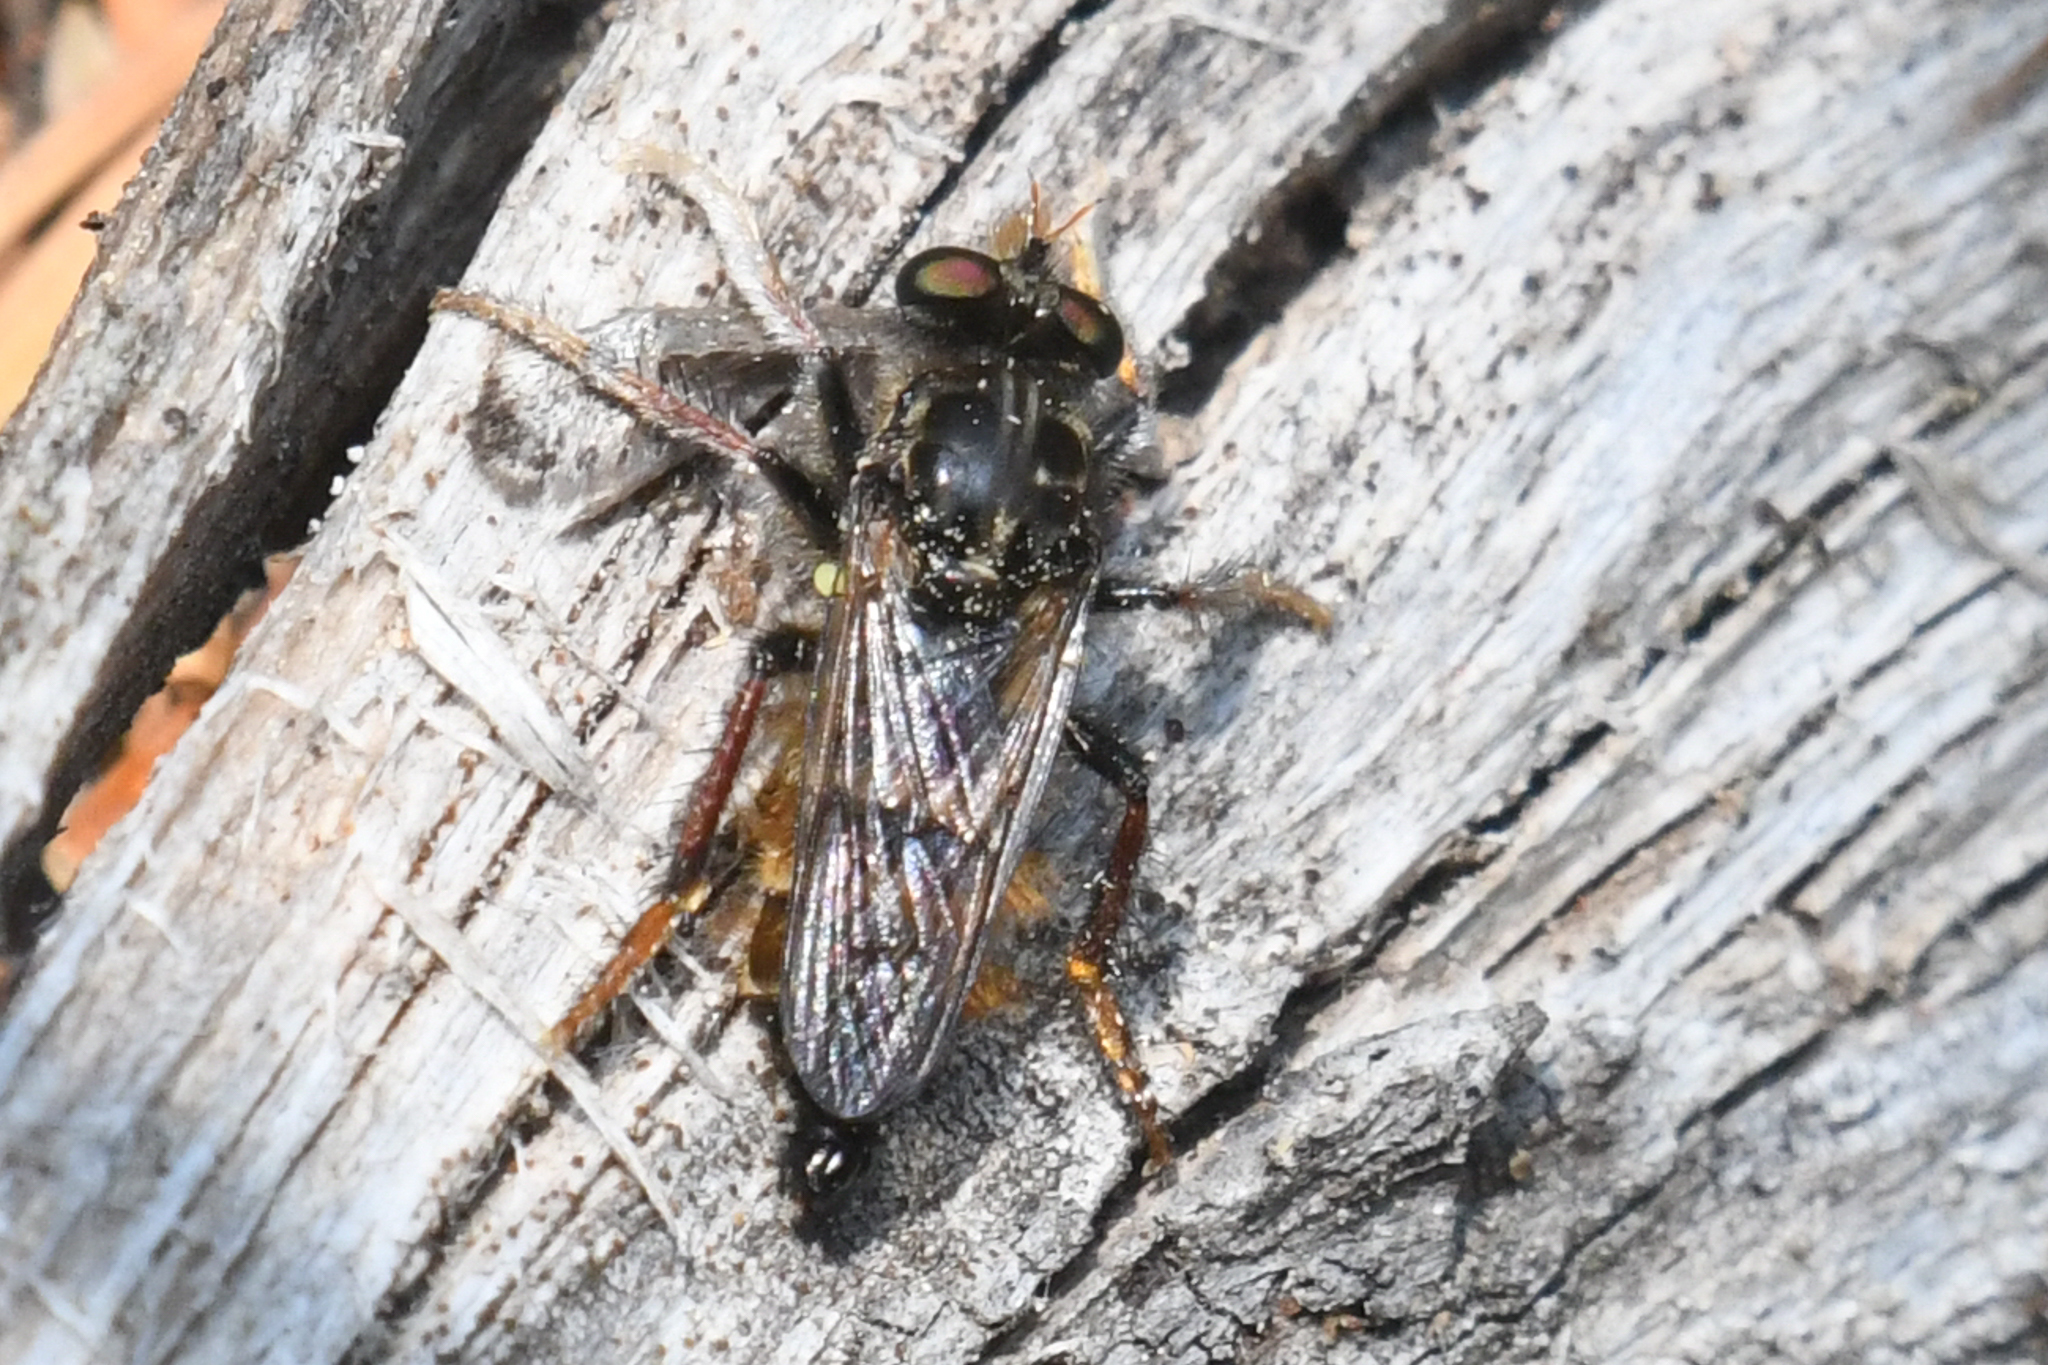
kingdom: Animalia
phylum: Arthropoda
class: Insecta
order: Diptera
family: Asilidae
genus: Cyrtopogon
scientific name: Cyrtopogon auratus
